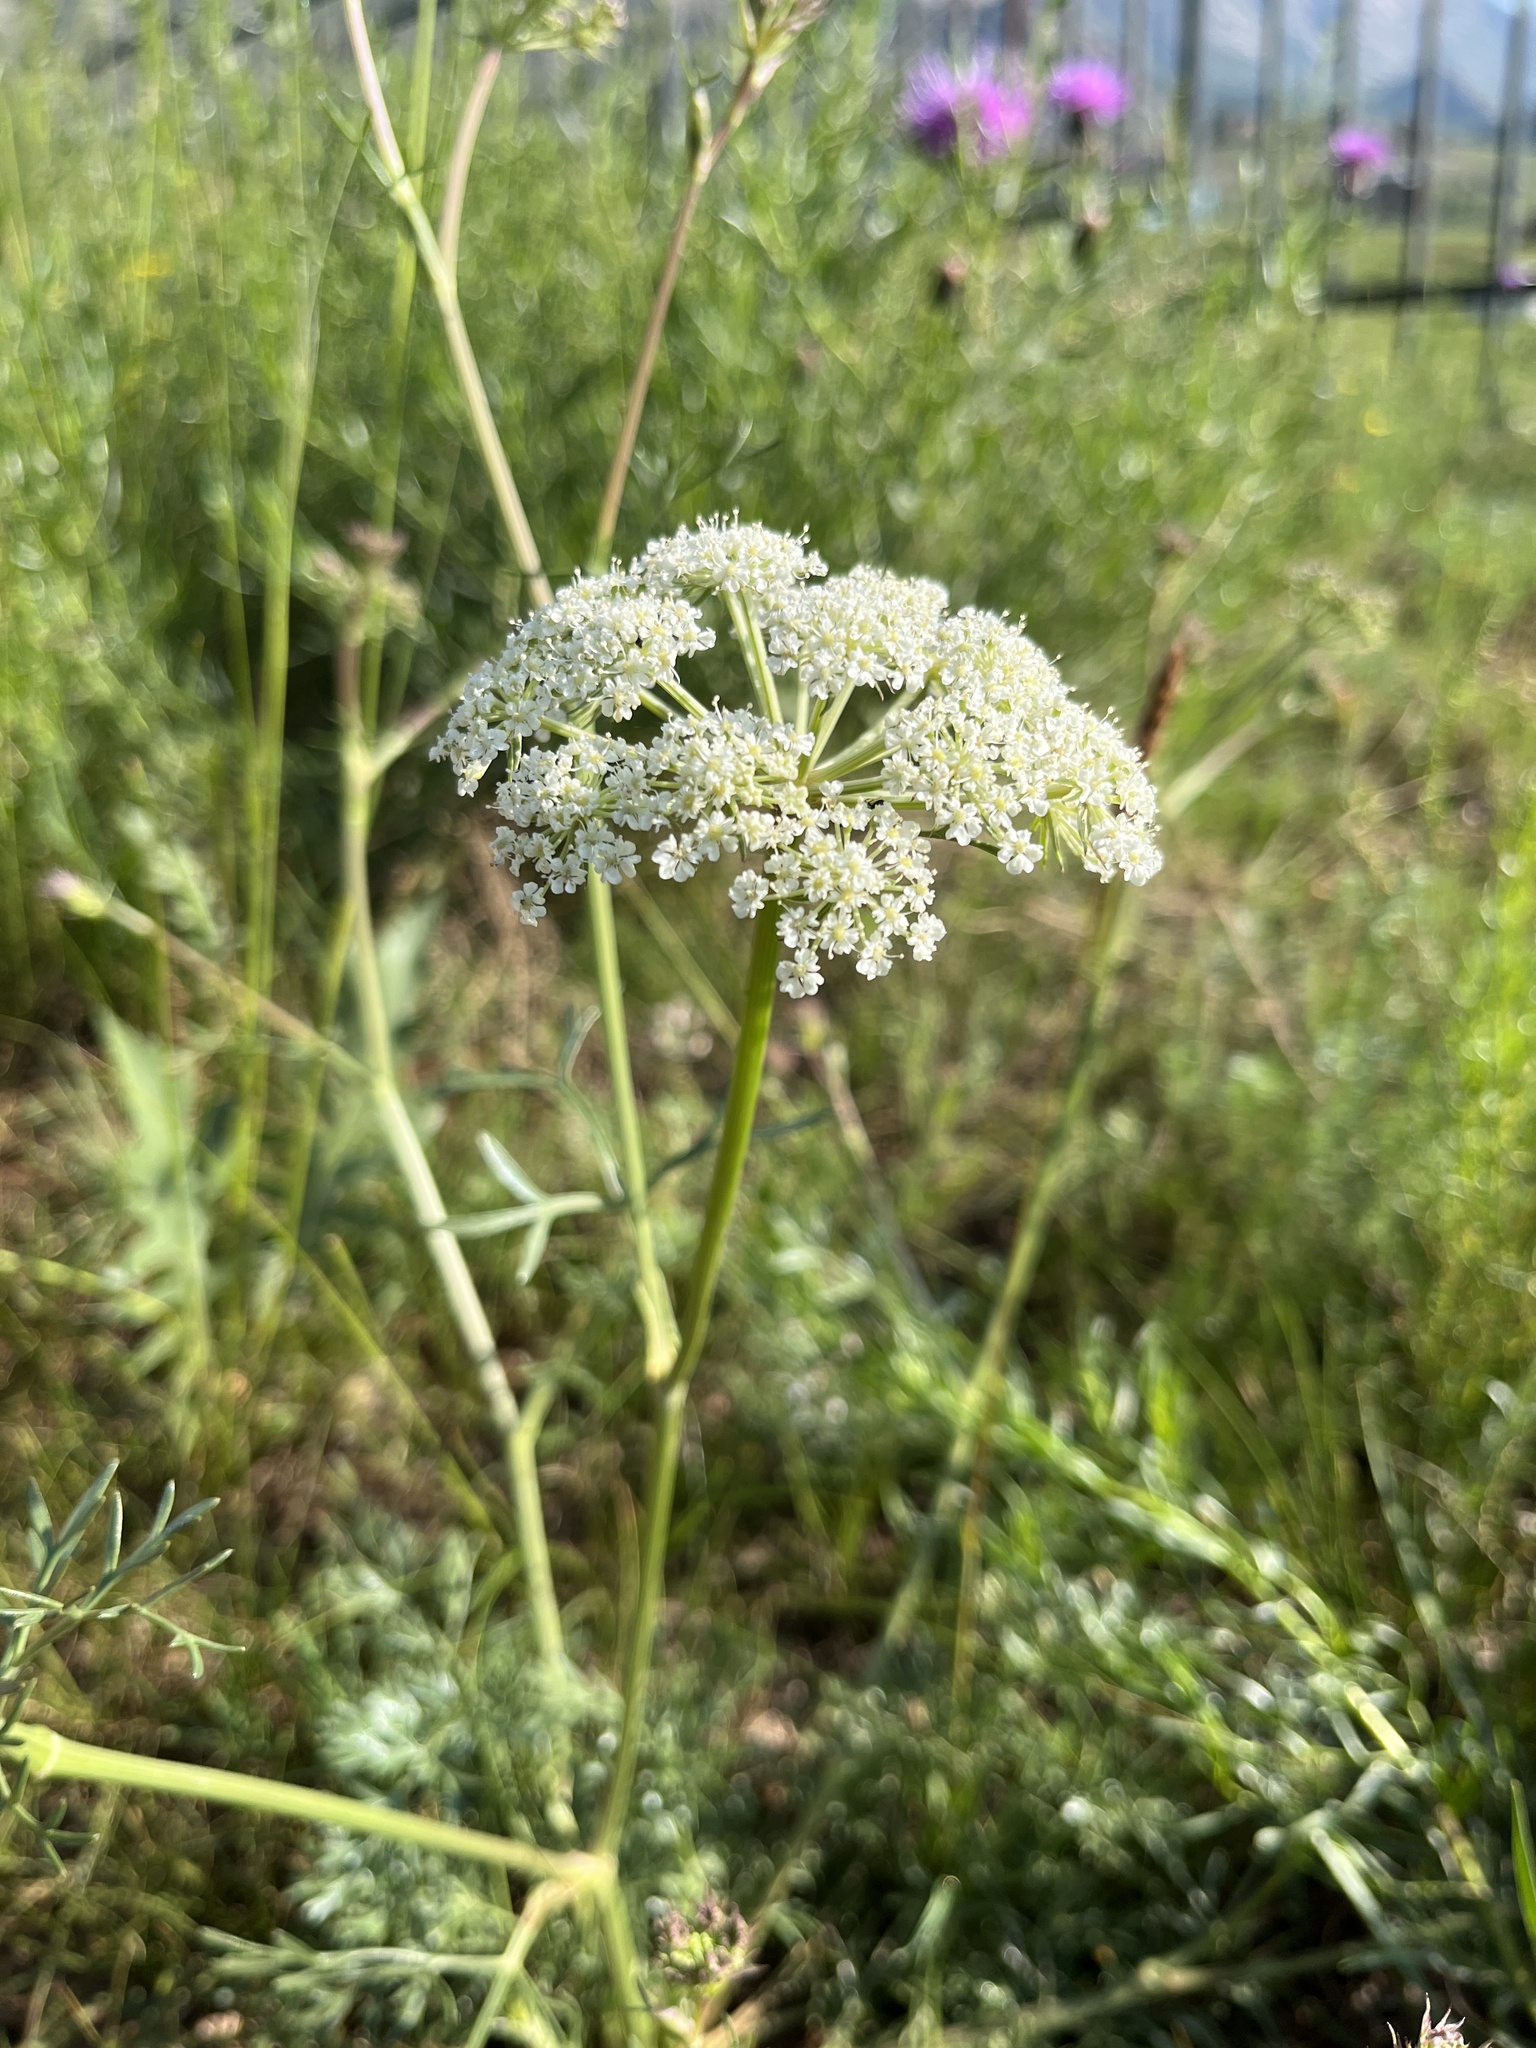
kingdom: Plantae
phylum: Tracheophyta
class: Magnoliopsida
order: Apiales
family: Apiaceae
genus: Kitagawia
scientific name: Kitagawia baicalensis
